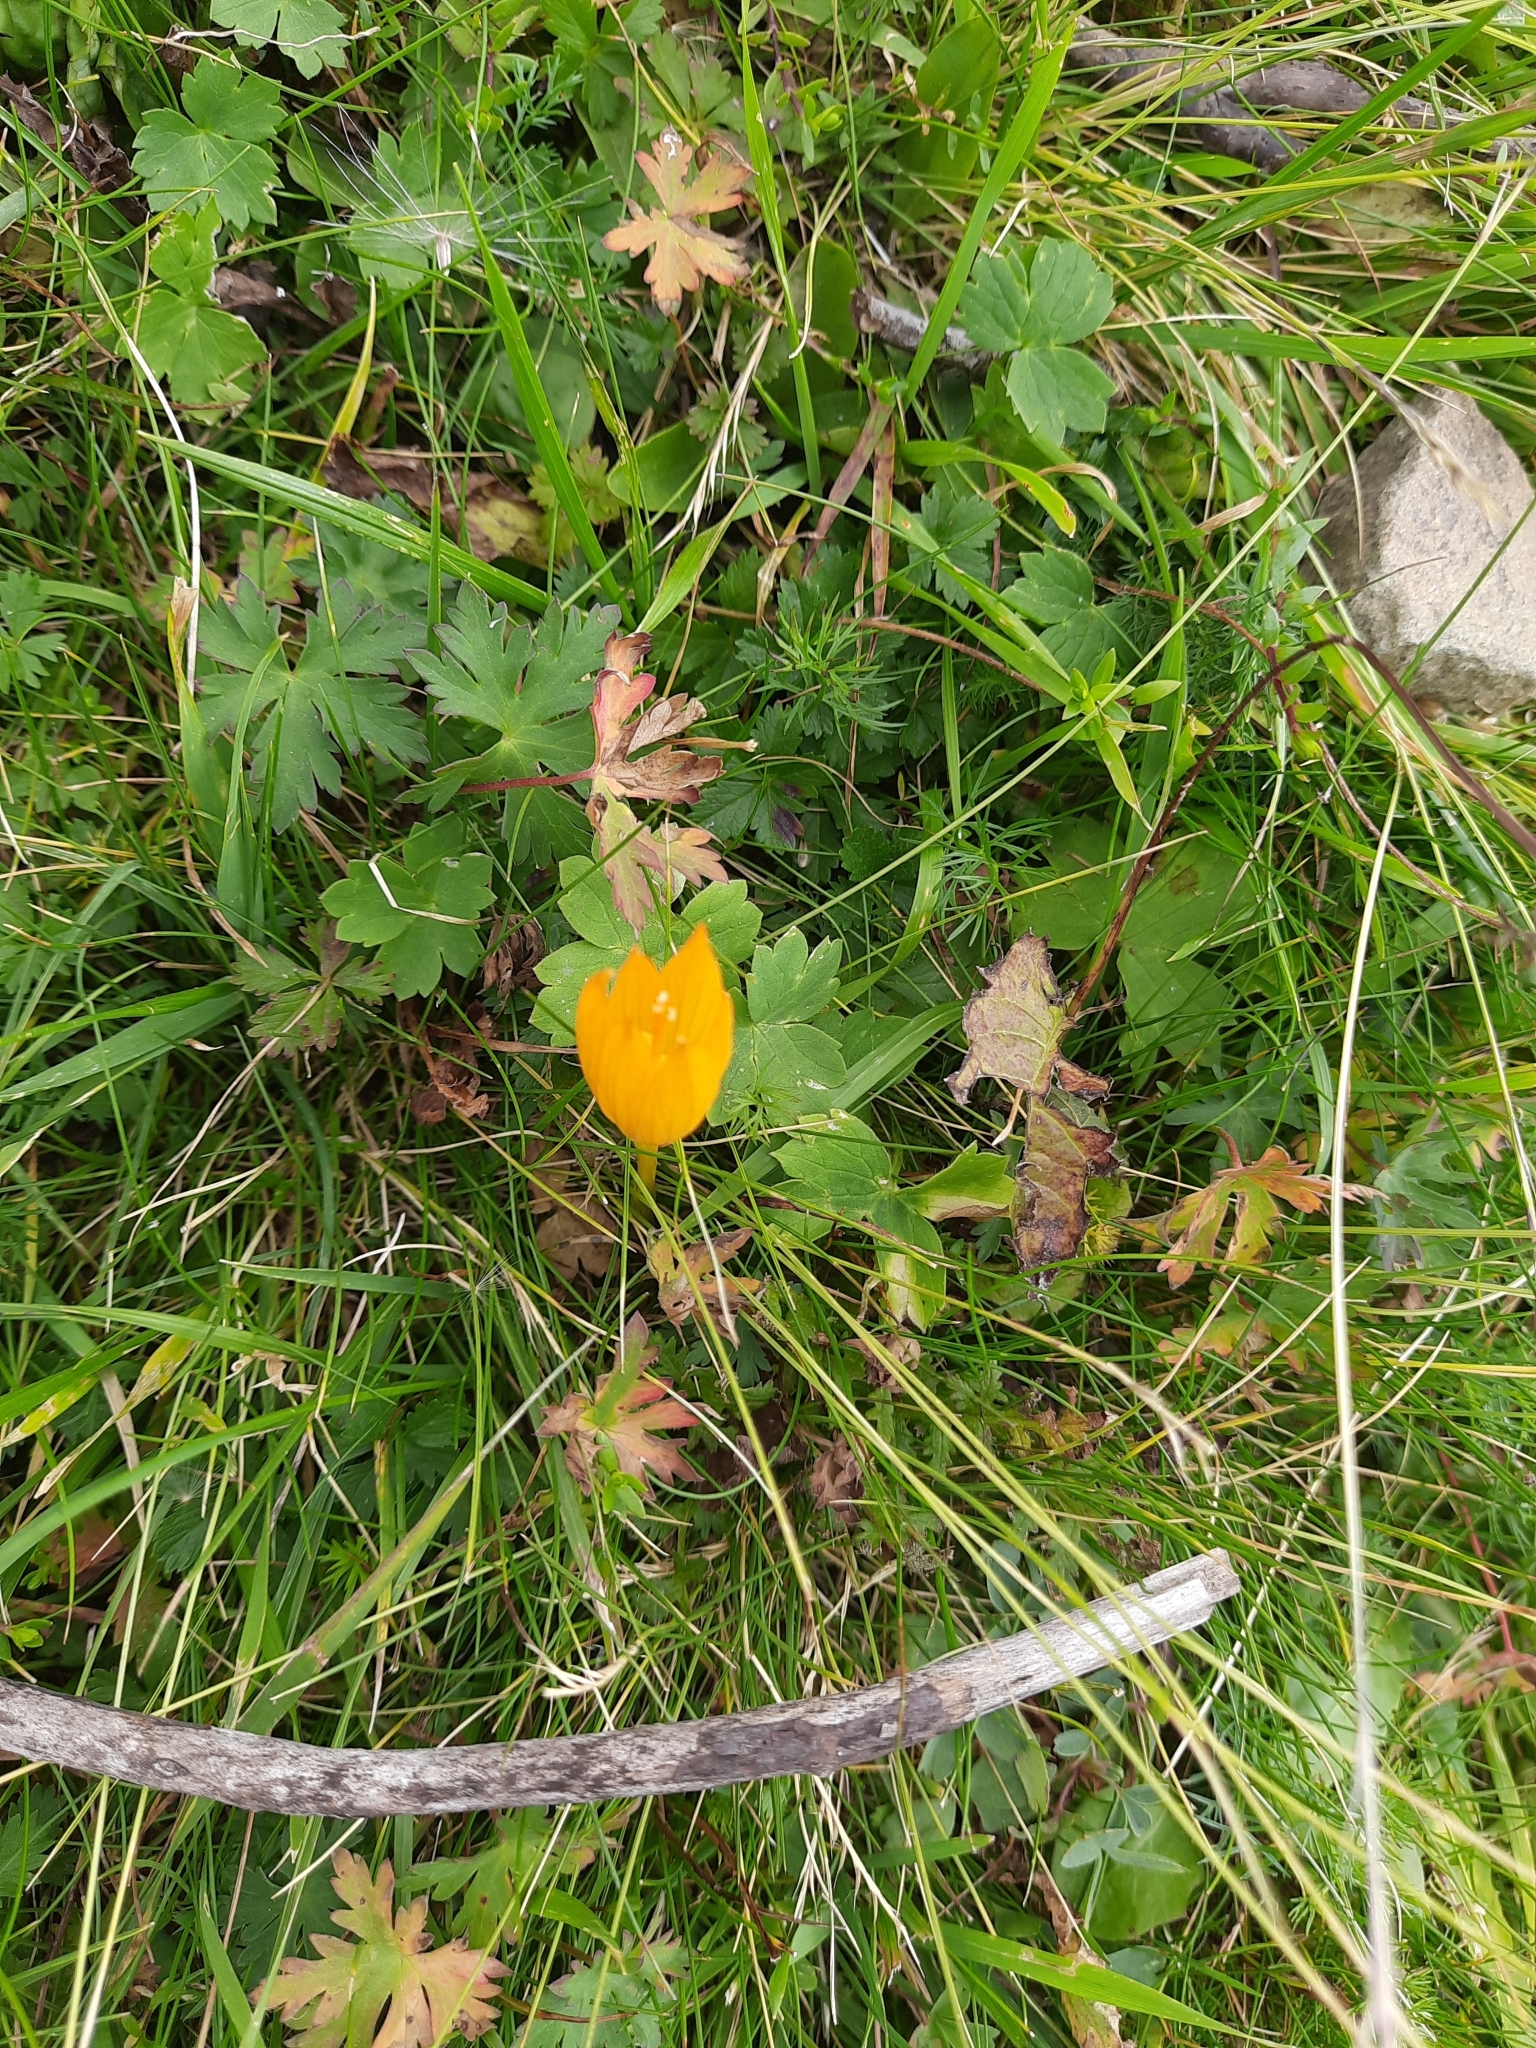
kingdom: Plantae
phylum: Tracheophyta
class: Liliopsida
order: Asparagales
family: Iridaceae
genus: Crocus
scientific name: Crocus scharojanii
